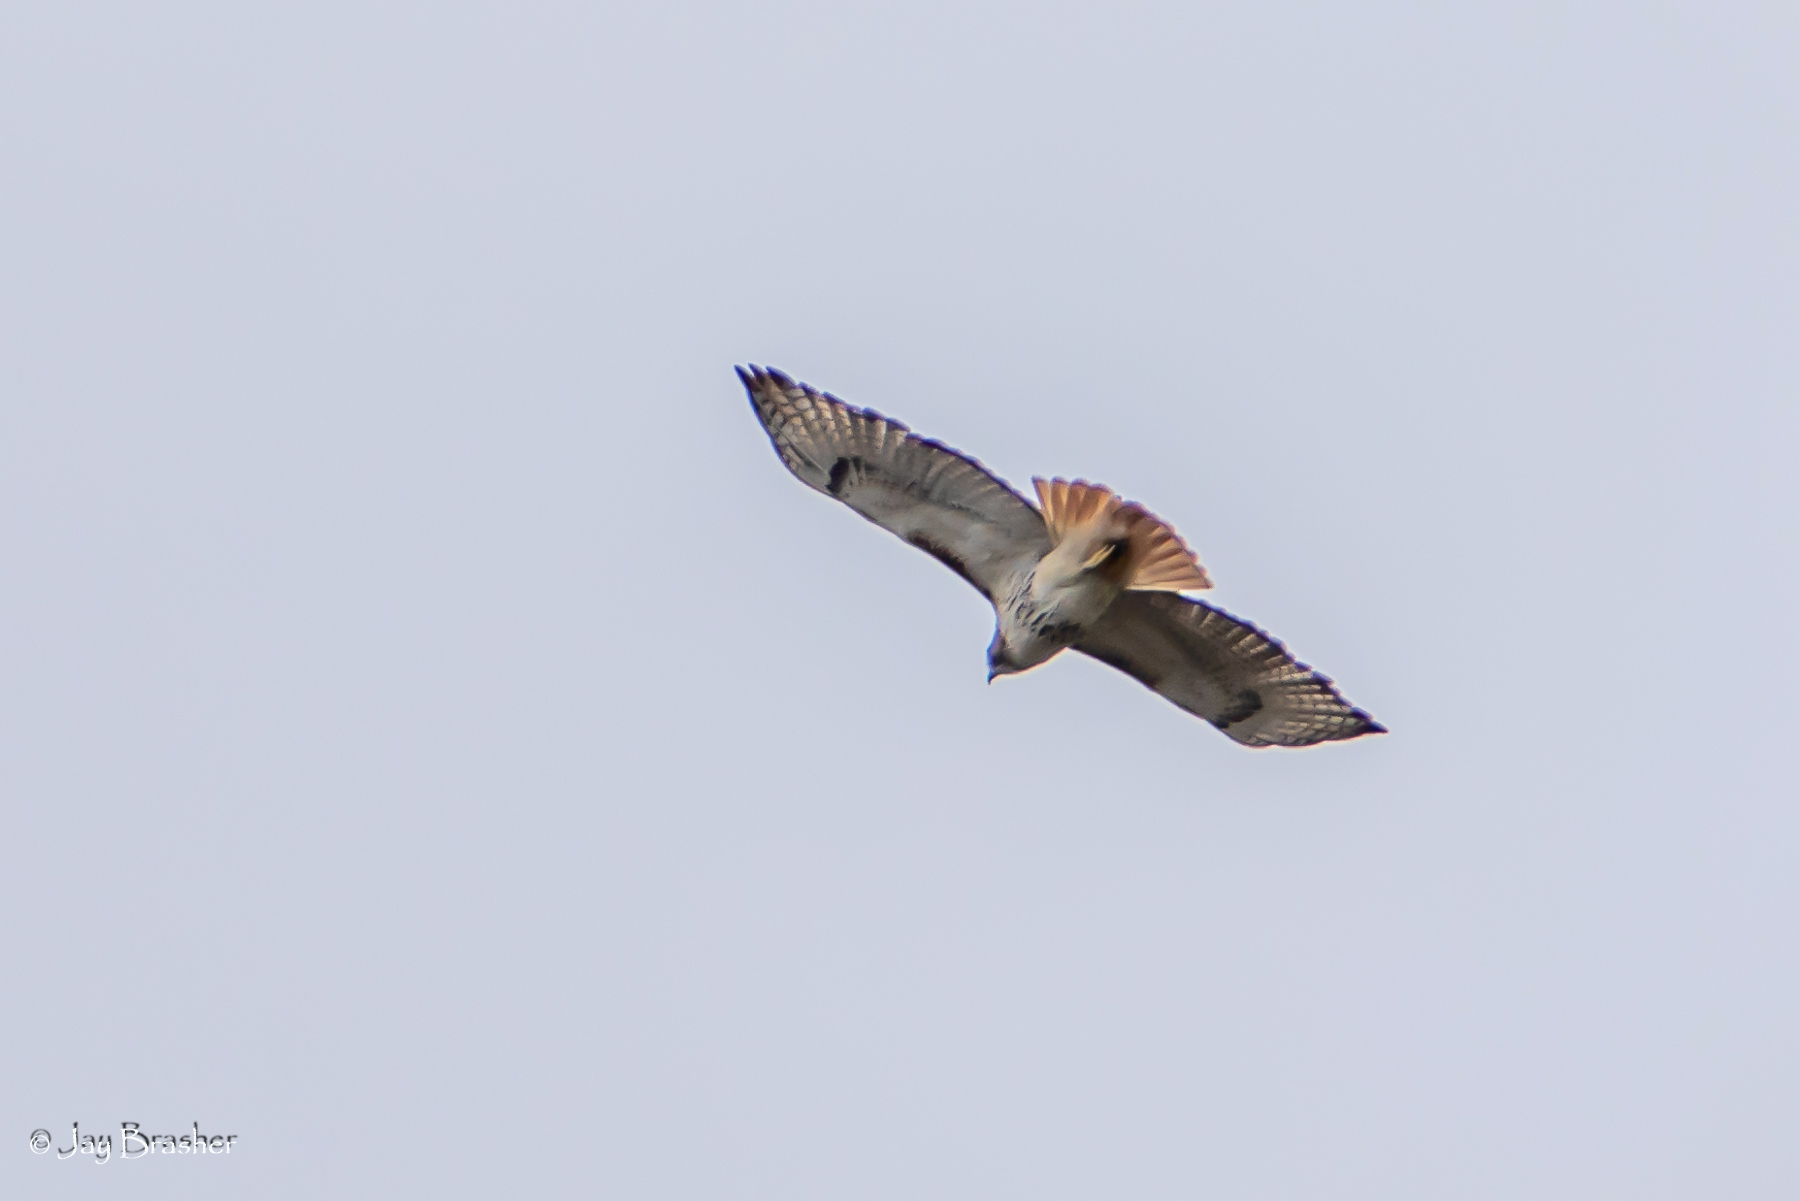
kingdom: Animalia
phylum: Chordata
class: Aves
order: Accipitriformes
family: Accipitridae
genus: Buteo
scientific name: Buteo jamaicensis
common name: Red-tailed hawk
